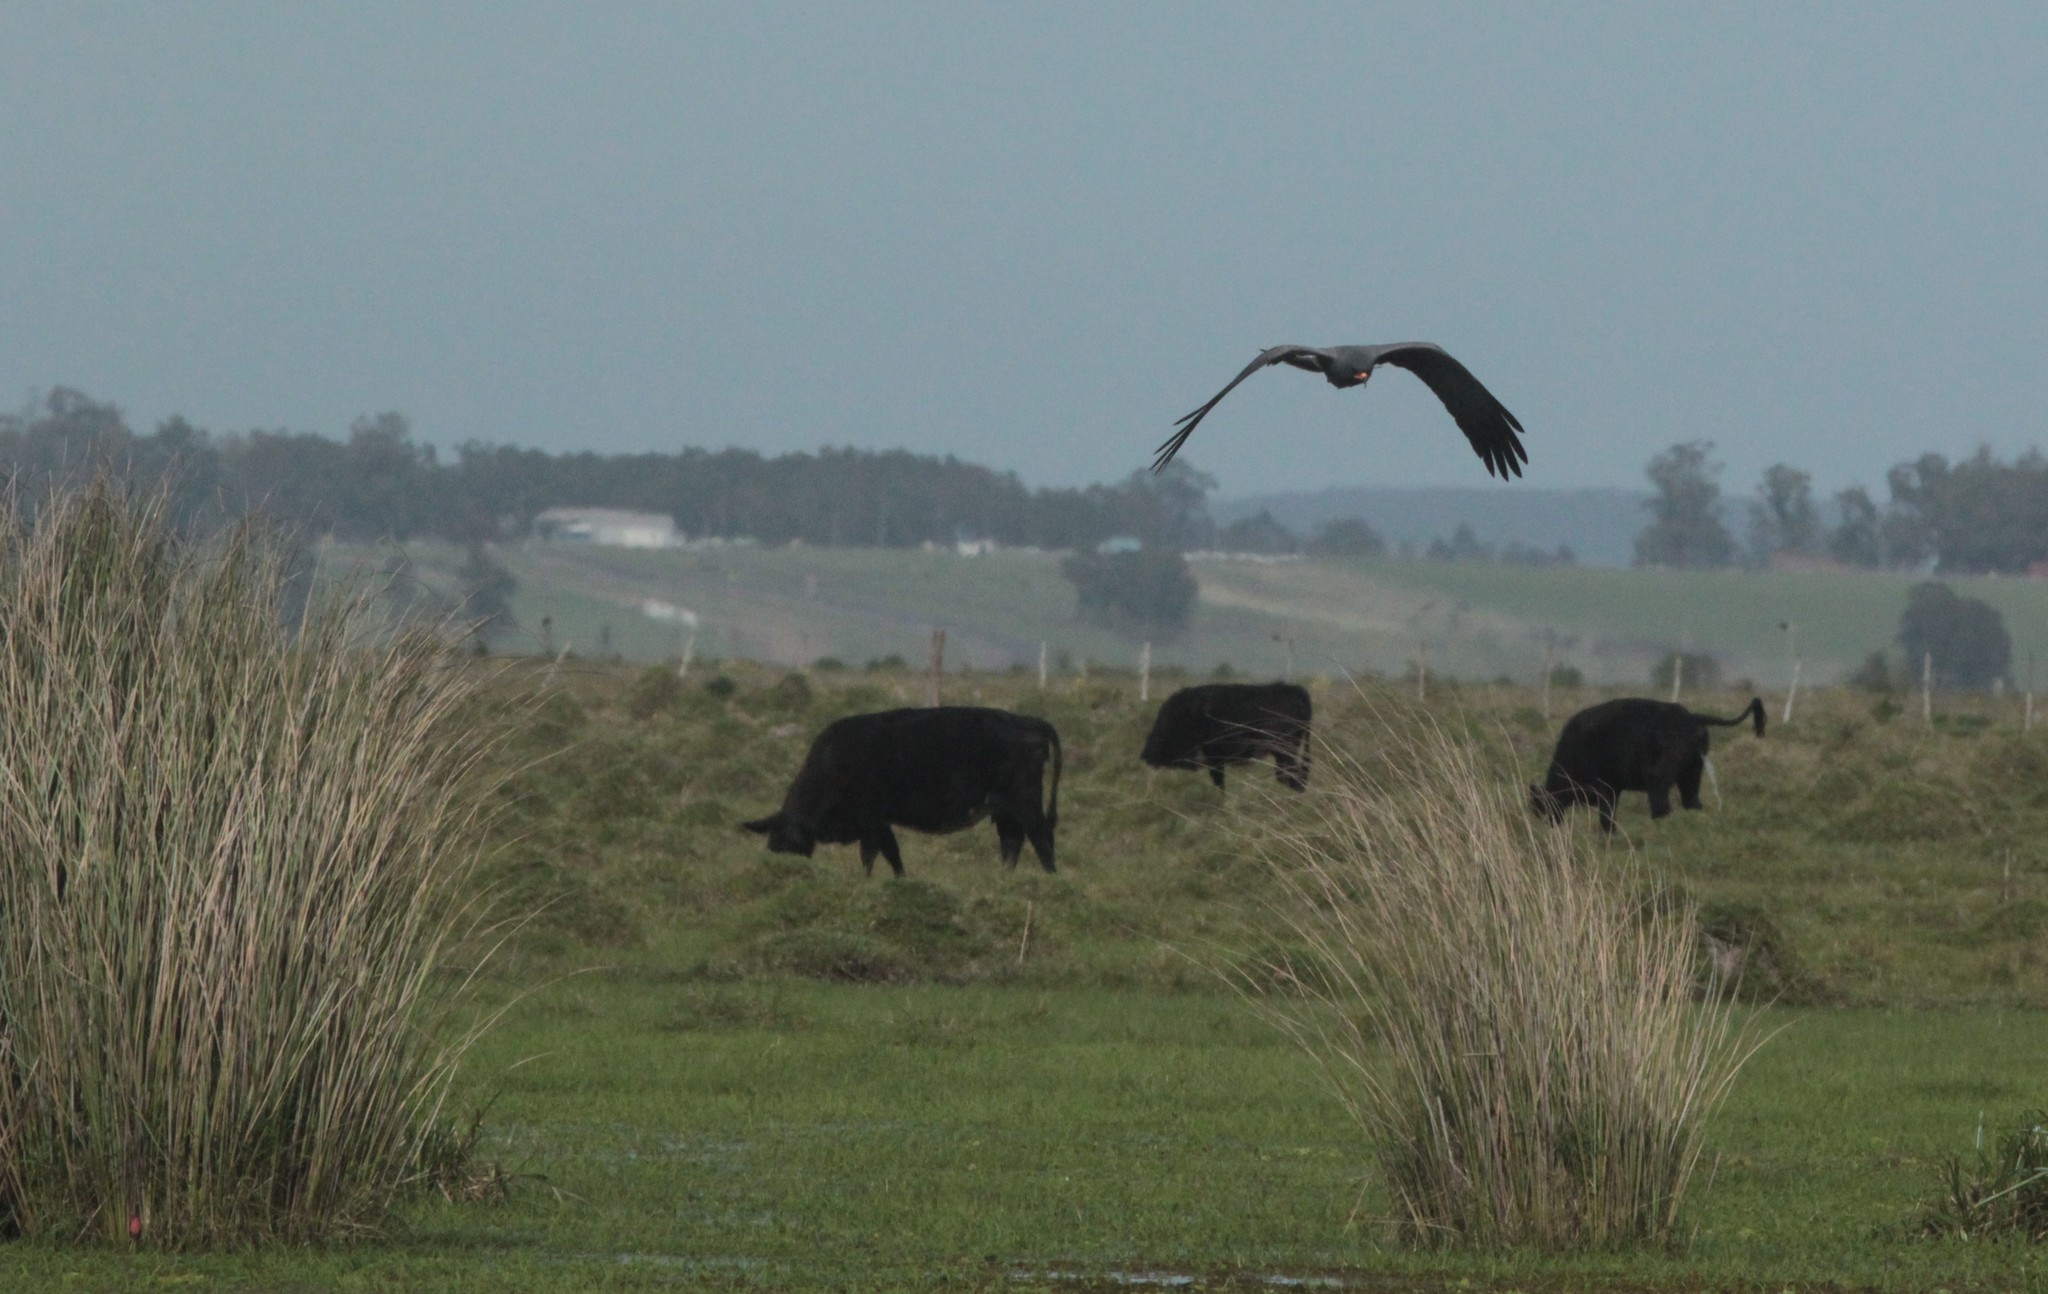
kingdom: Animalia
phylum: Chordata
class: Aves
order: Accipitriformes
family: Accipitridae
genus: Rostrhamus
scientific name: Rostrhamus sociabilis
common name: Snail kite
